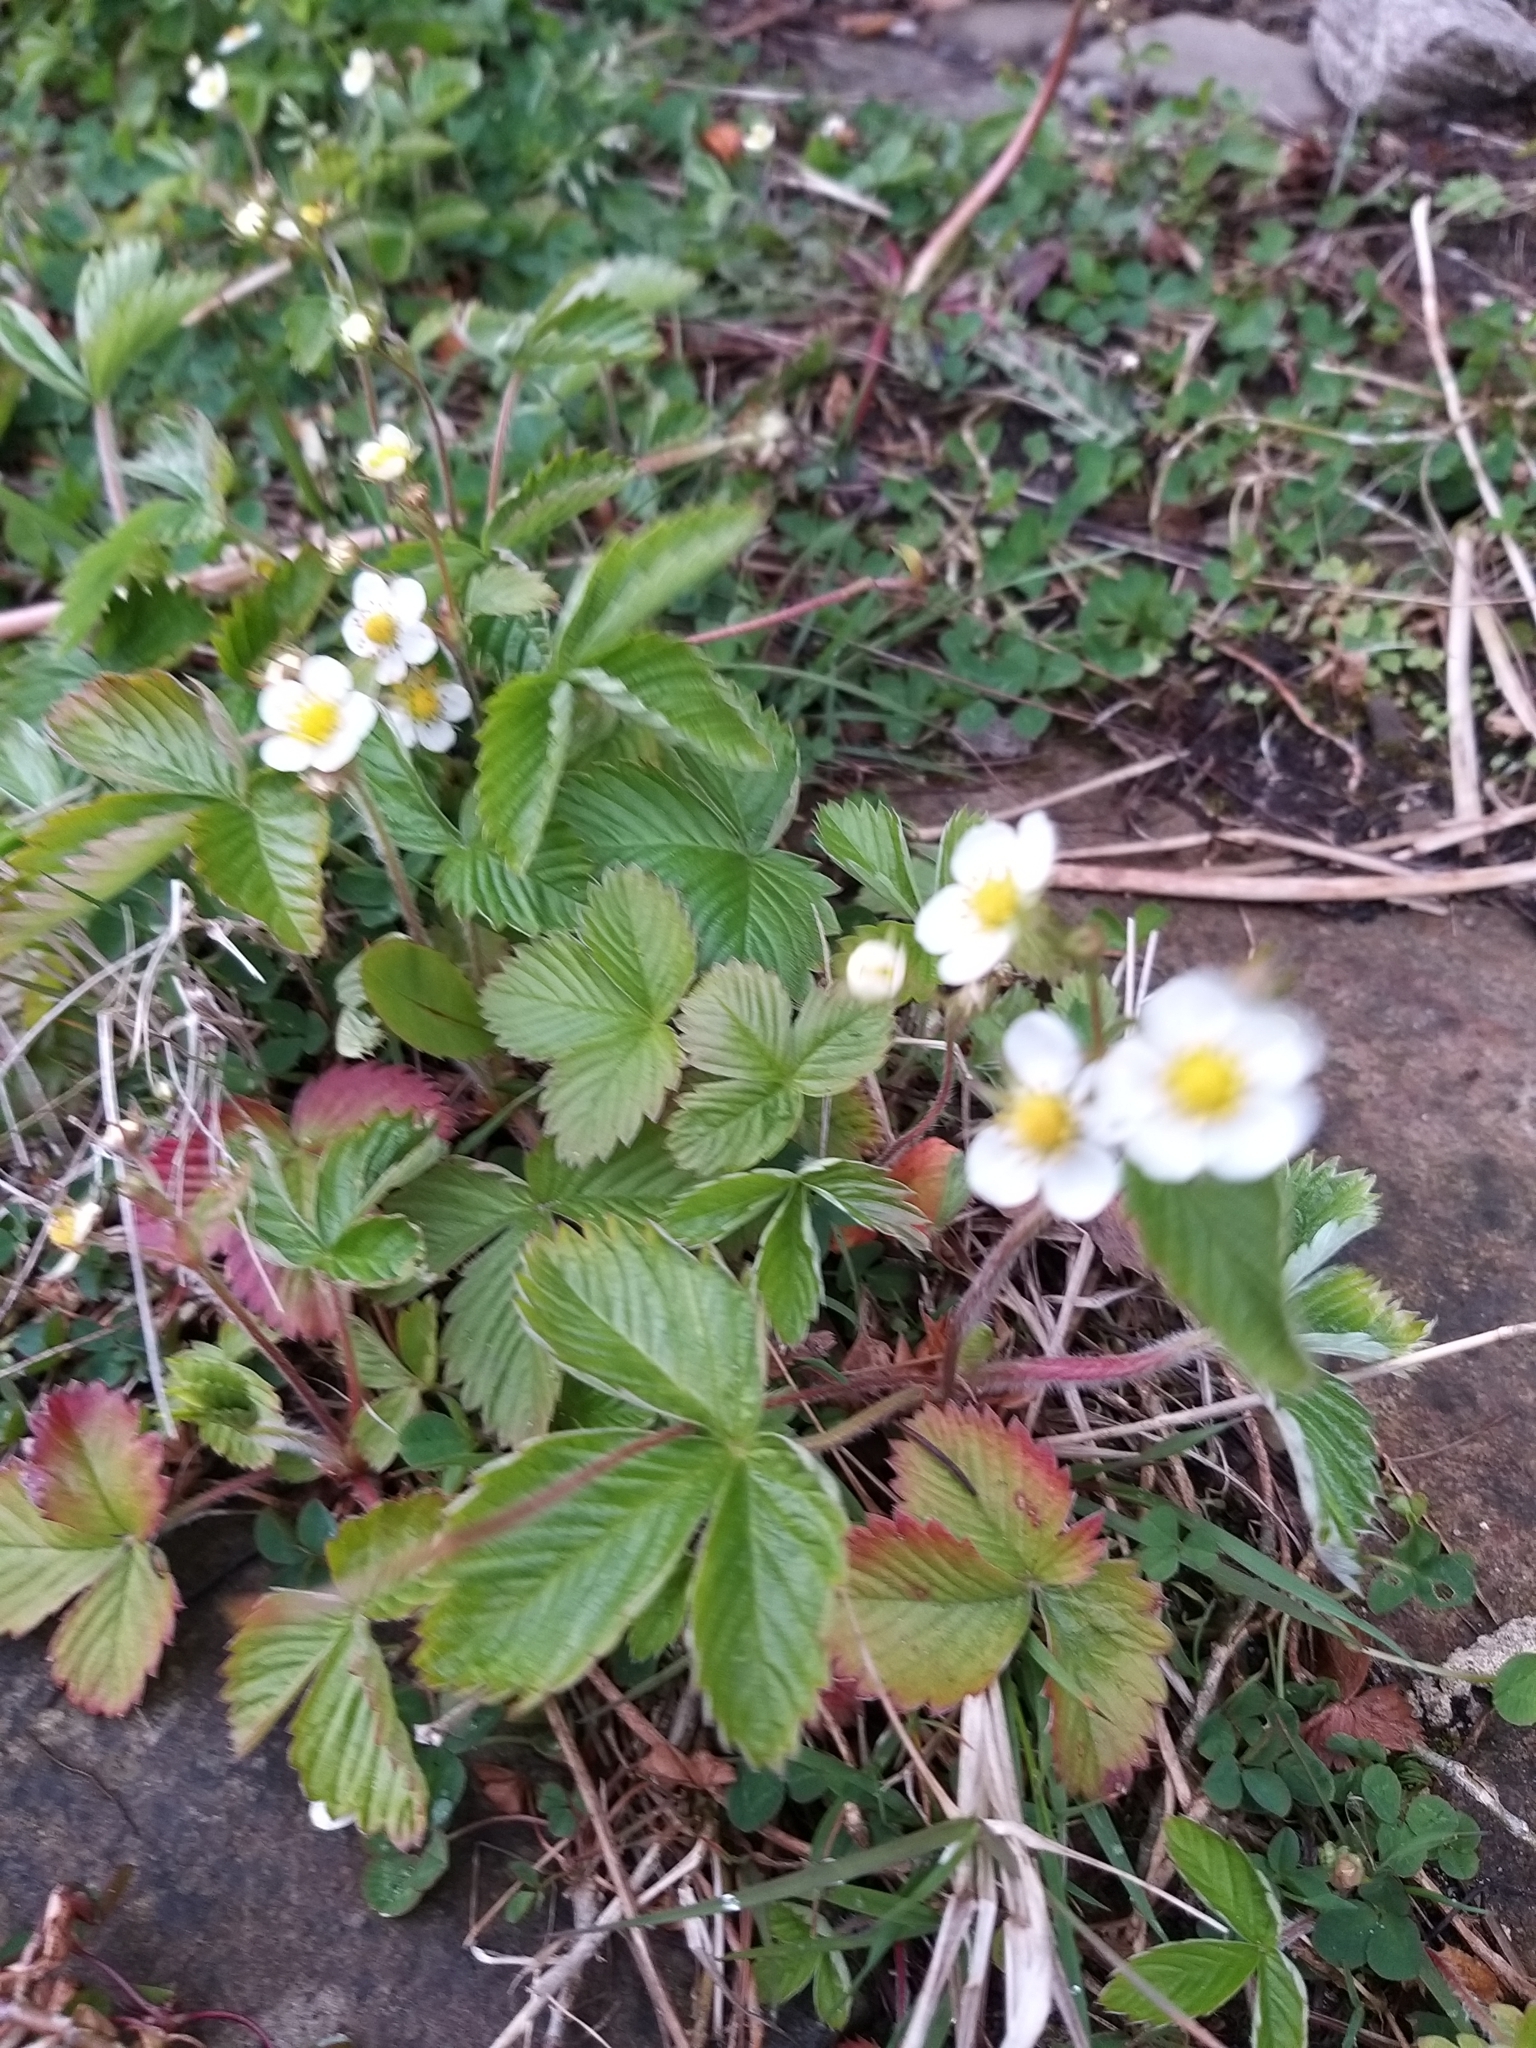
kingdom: Plantae
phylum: Tracheophyta
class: Magnoliopsida
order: Rosales
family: Rosaceae
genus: Fragaria
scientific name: Fragaria vesca
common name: Wild strawberry
